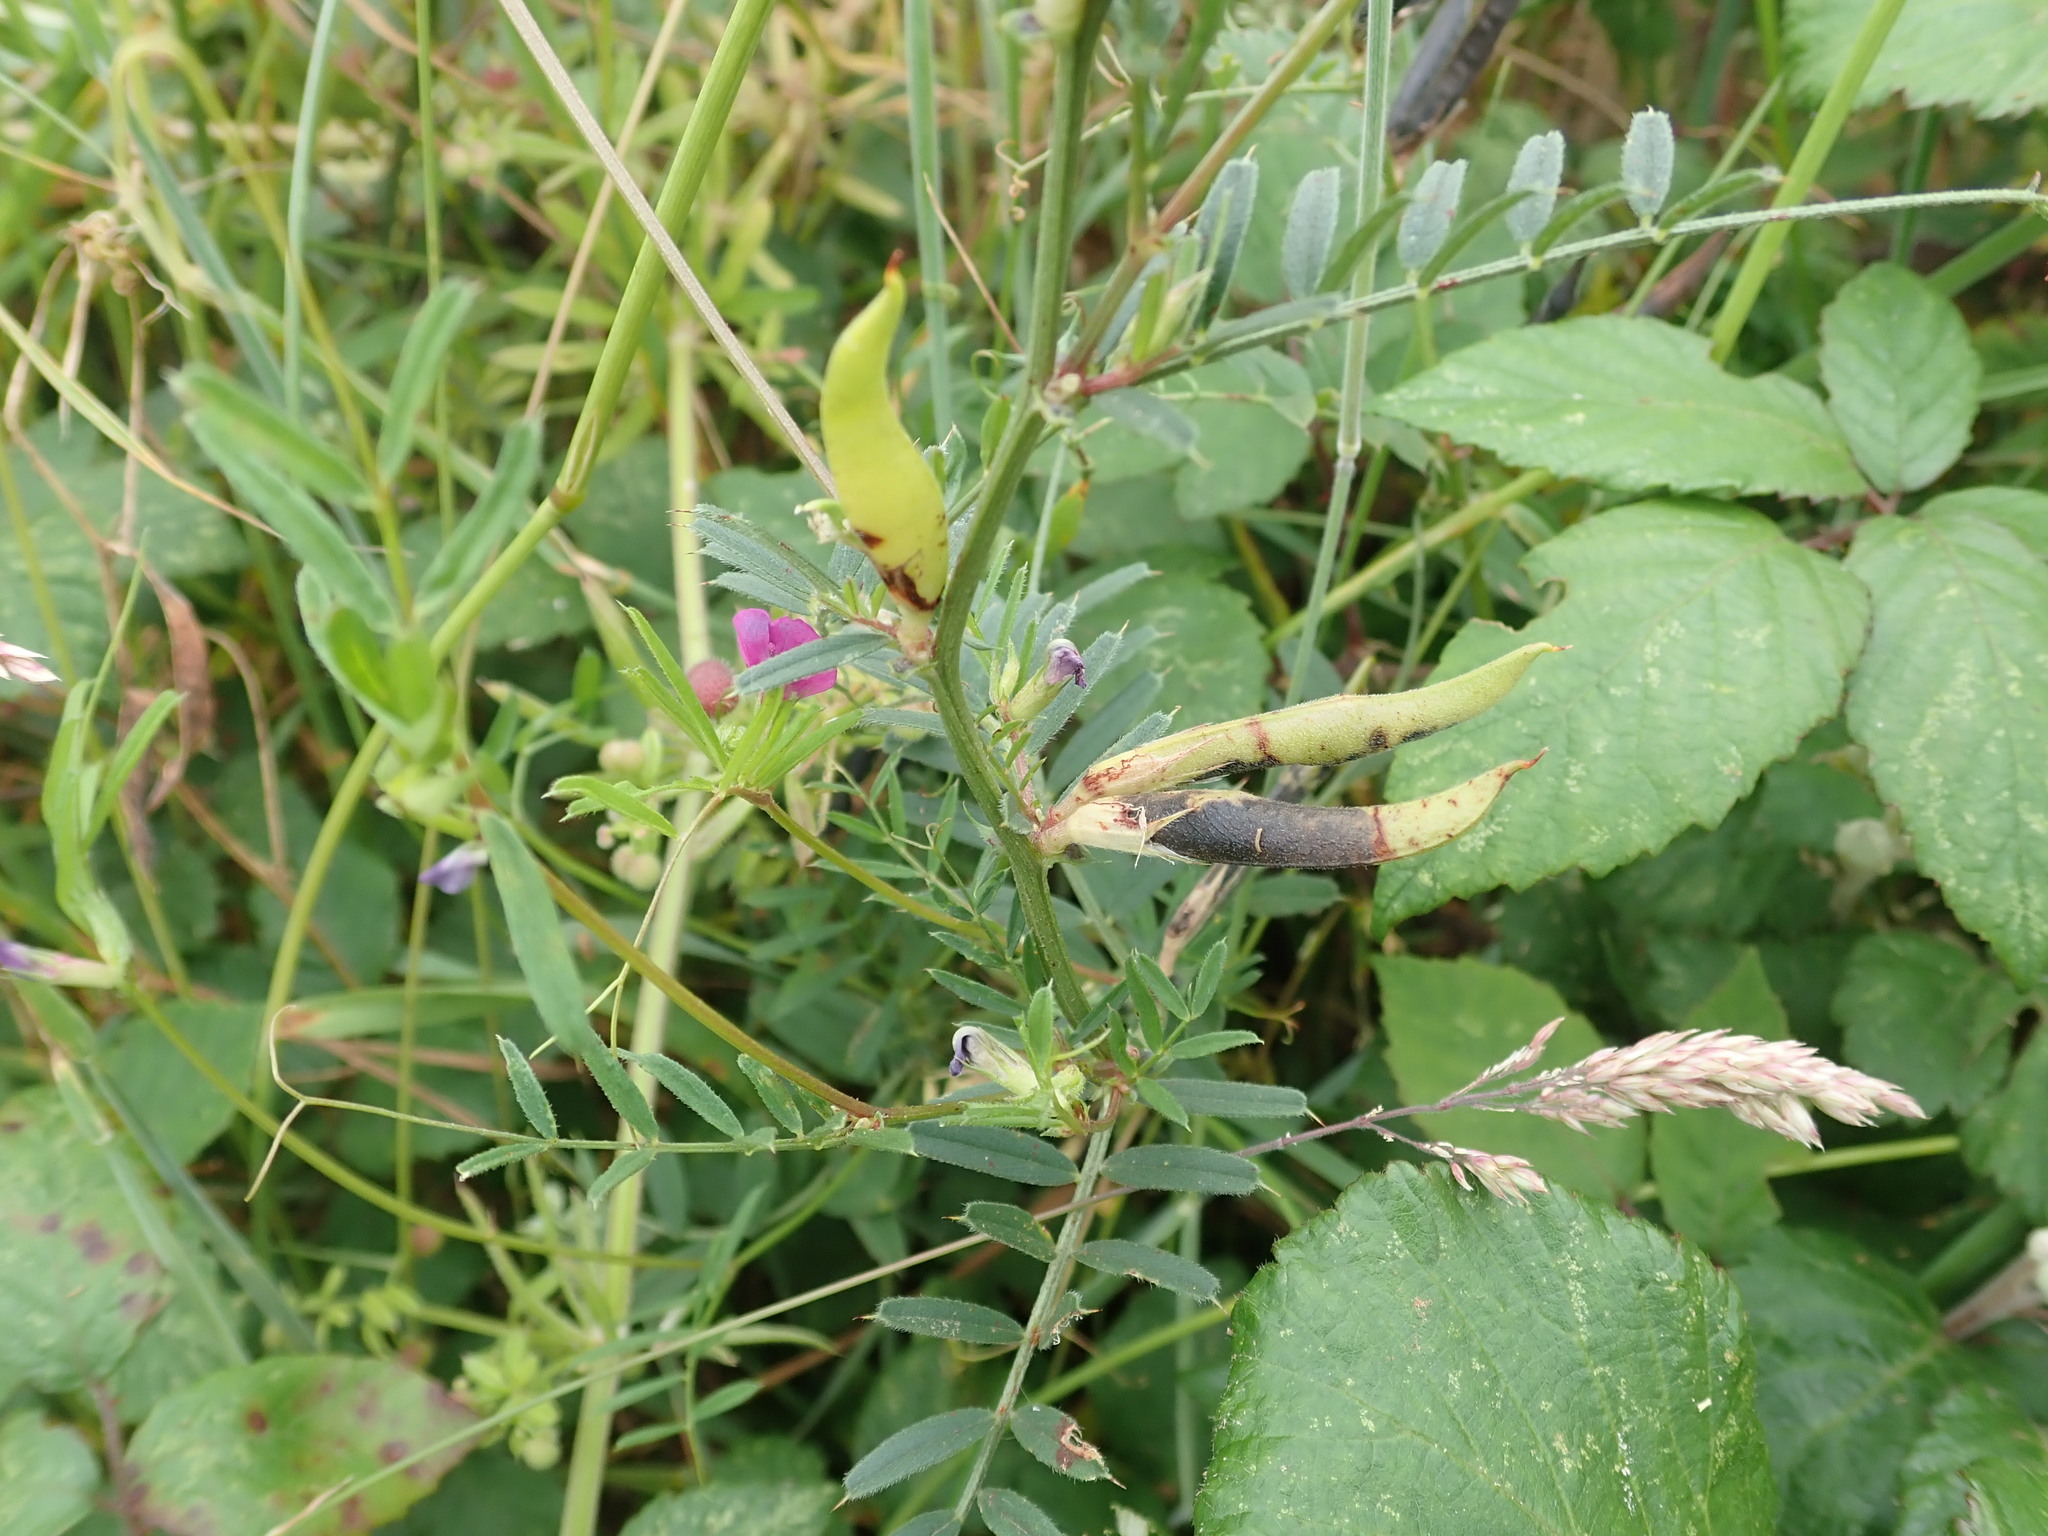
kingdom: Plantae
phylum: Tracheophyta
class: Magnoliopsida
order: Fabales
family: Fabaceae
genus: Vicia
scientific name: Vicia sativa
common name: Garden vetch
